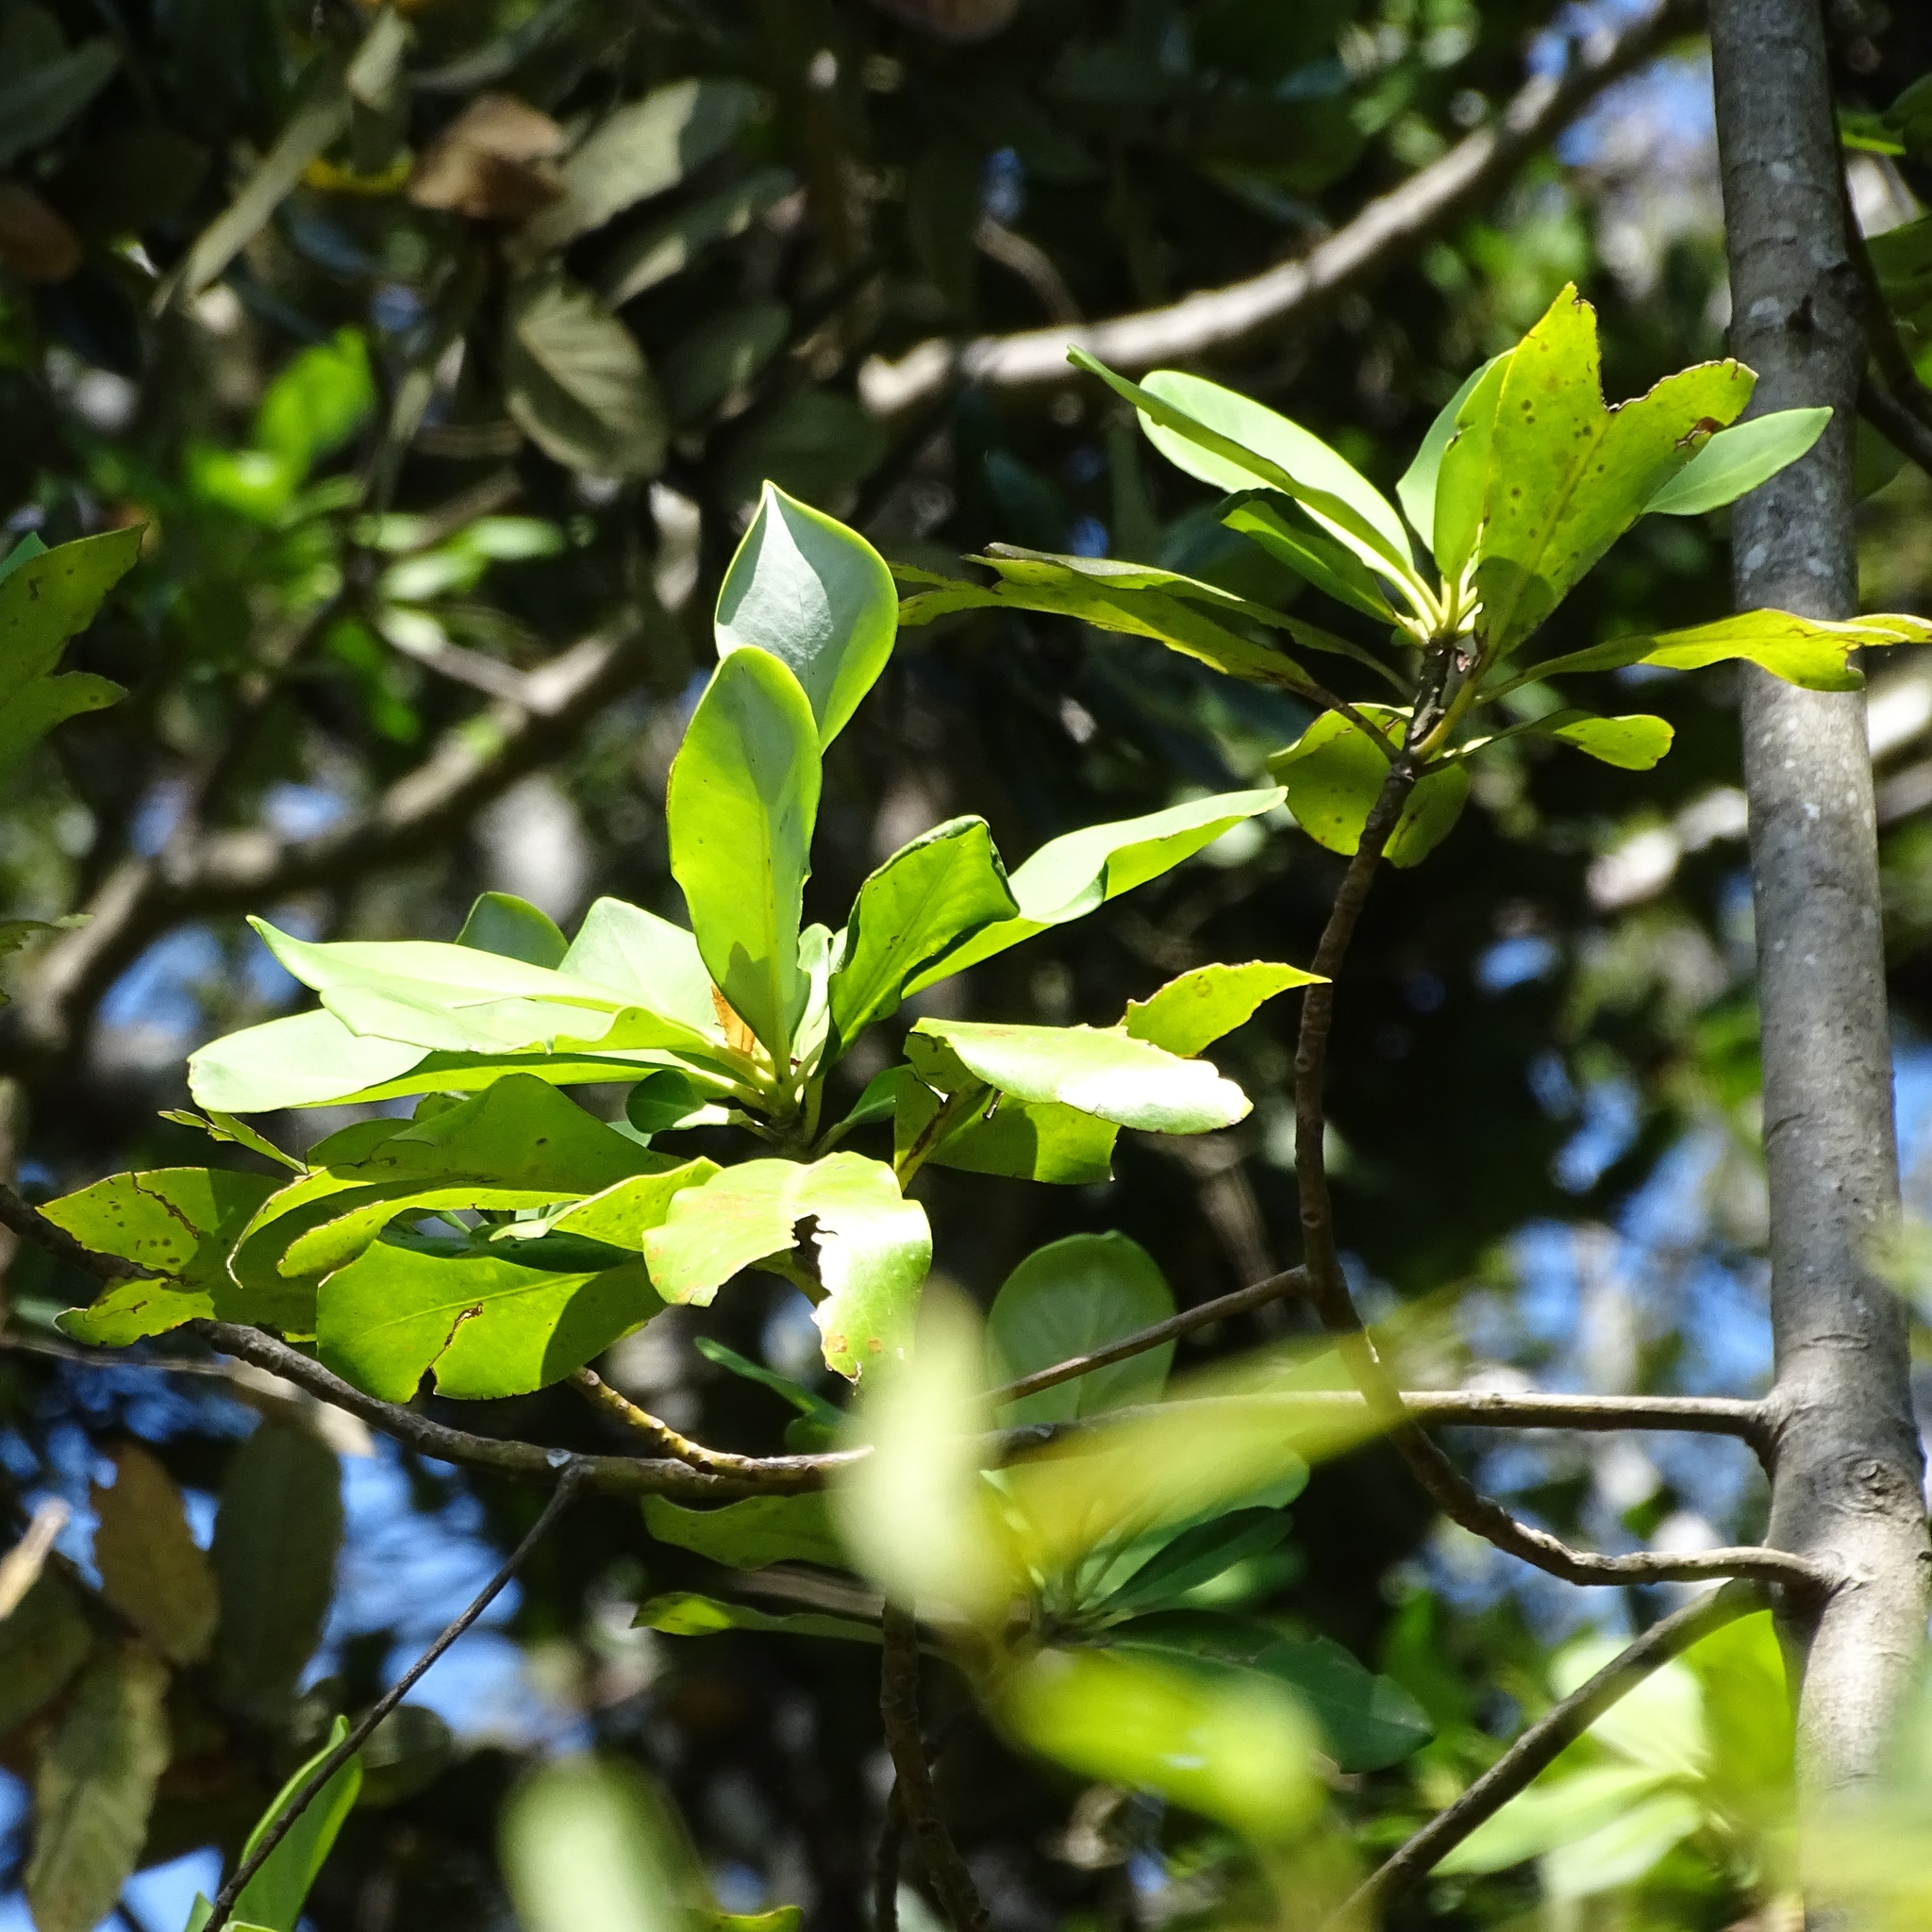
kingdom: Plantae
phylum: Tracheophyta
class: Magnoliopsida
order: Canellales
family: Winteraceae
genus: Drimys
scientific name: Drimys winteri
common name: Winter's-bark
